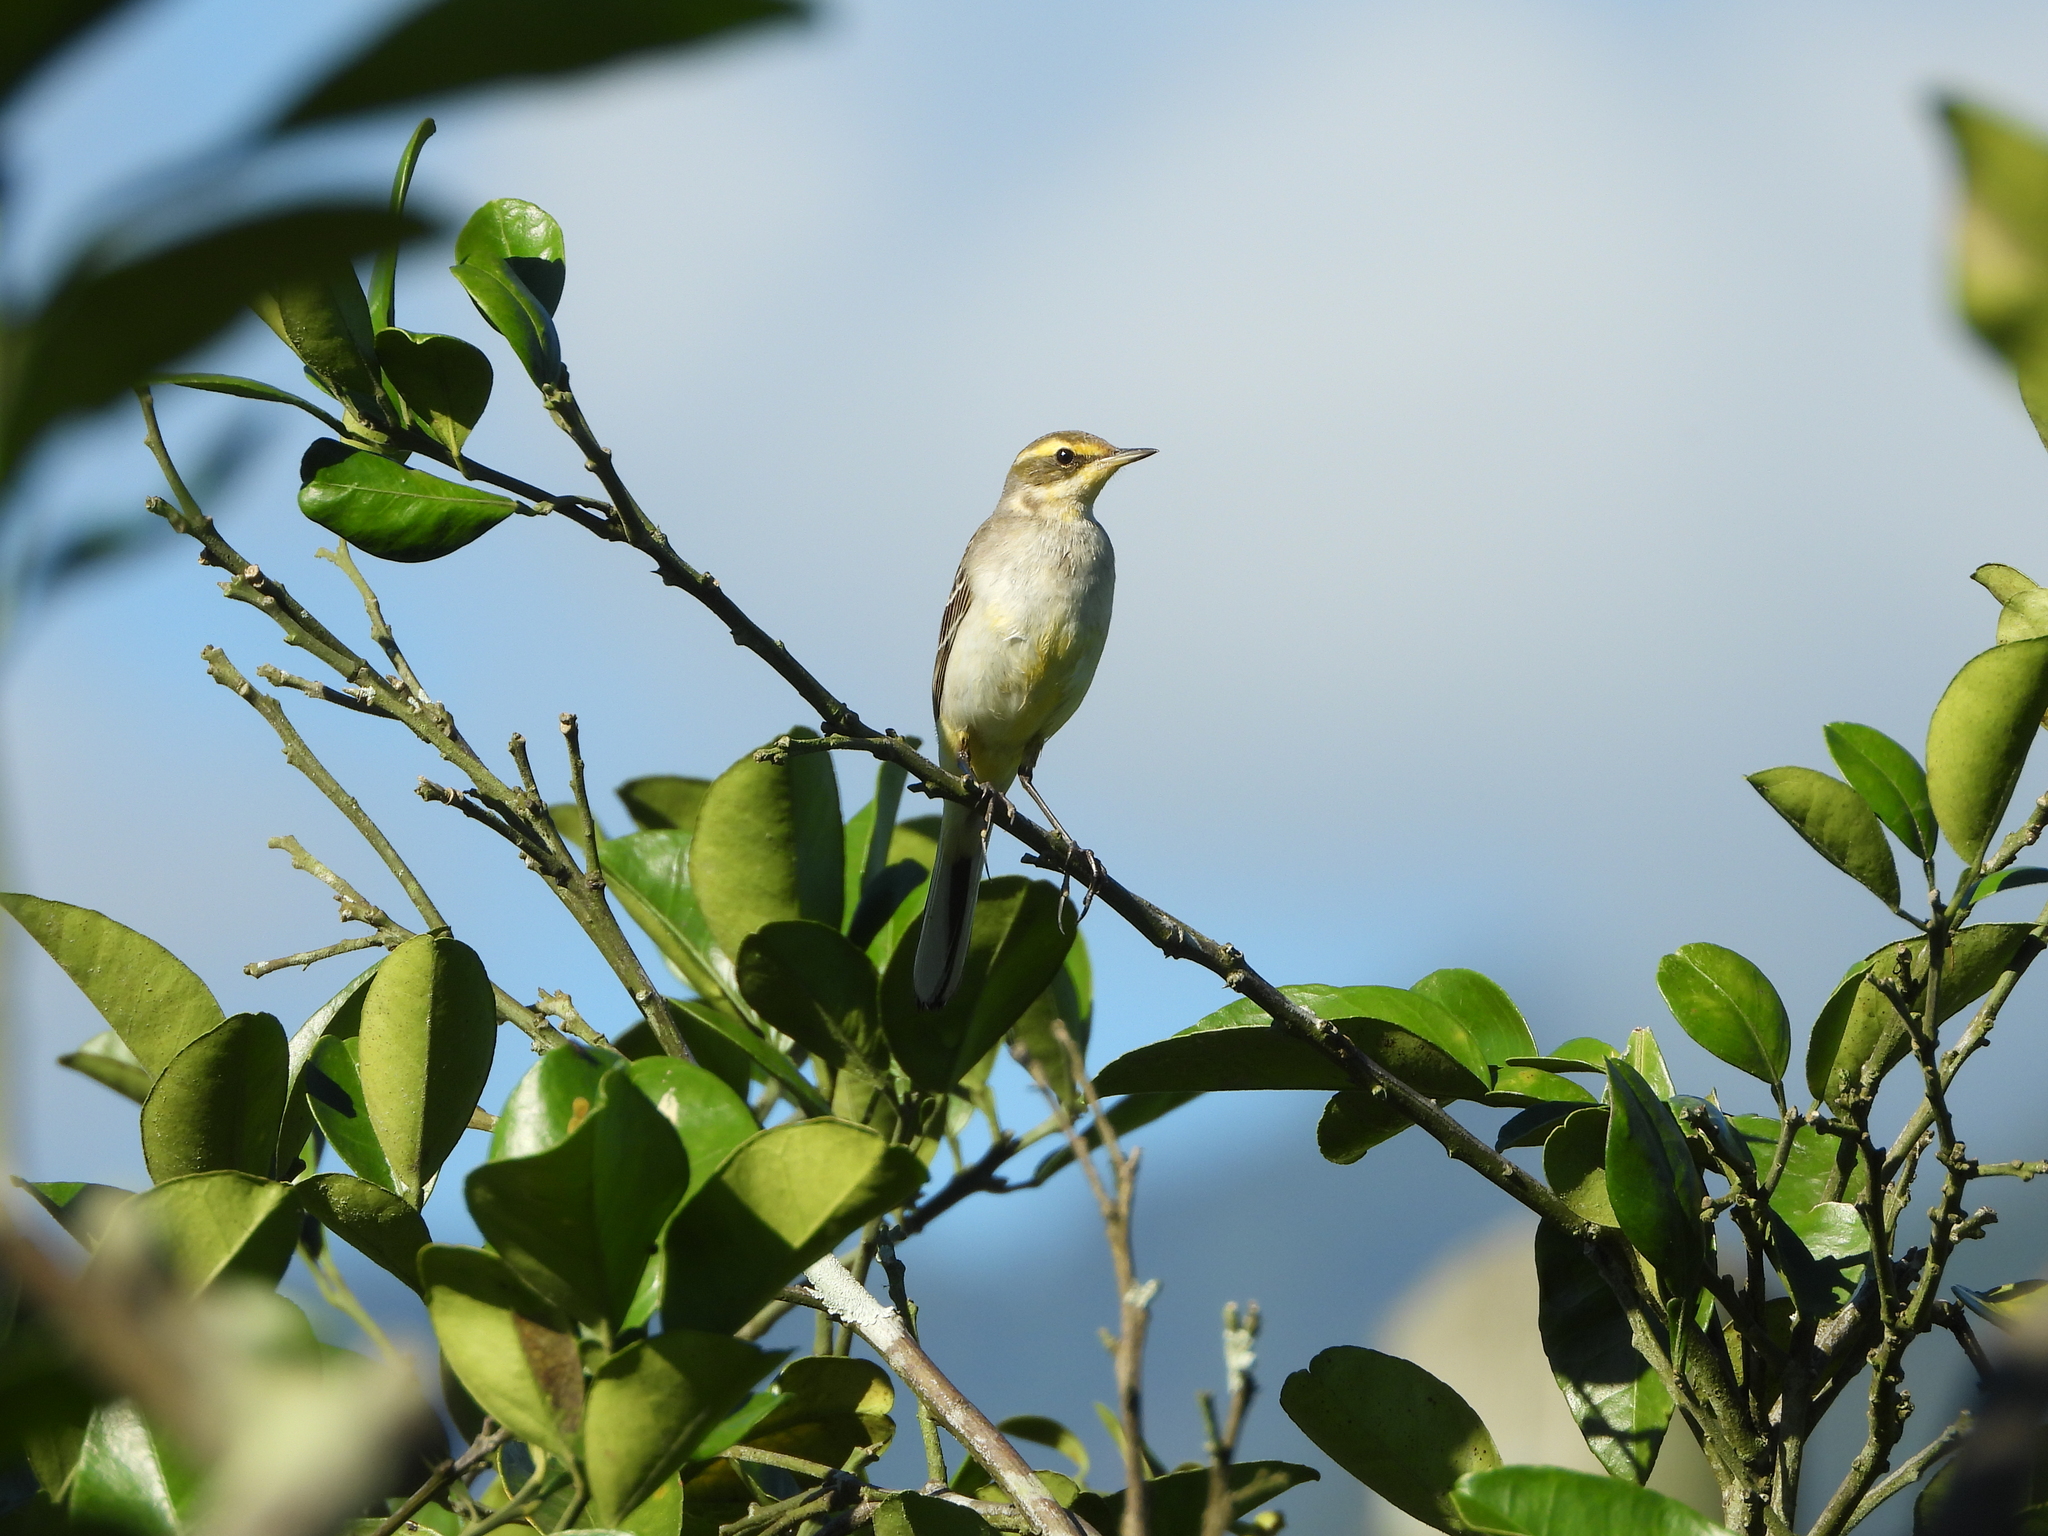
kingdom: Animalia
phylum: Chordata
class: Aves
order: Passeriformes
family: Motacillidae
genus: Motacilla
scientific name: Motacilla tschutschensis
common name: Eastern yellow wagtail
